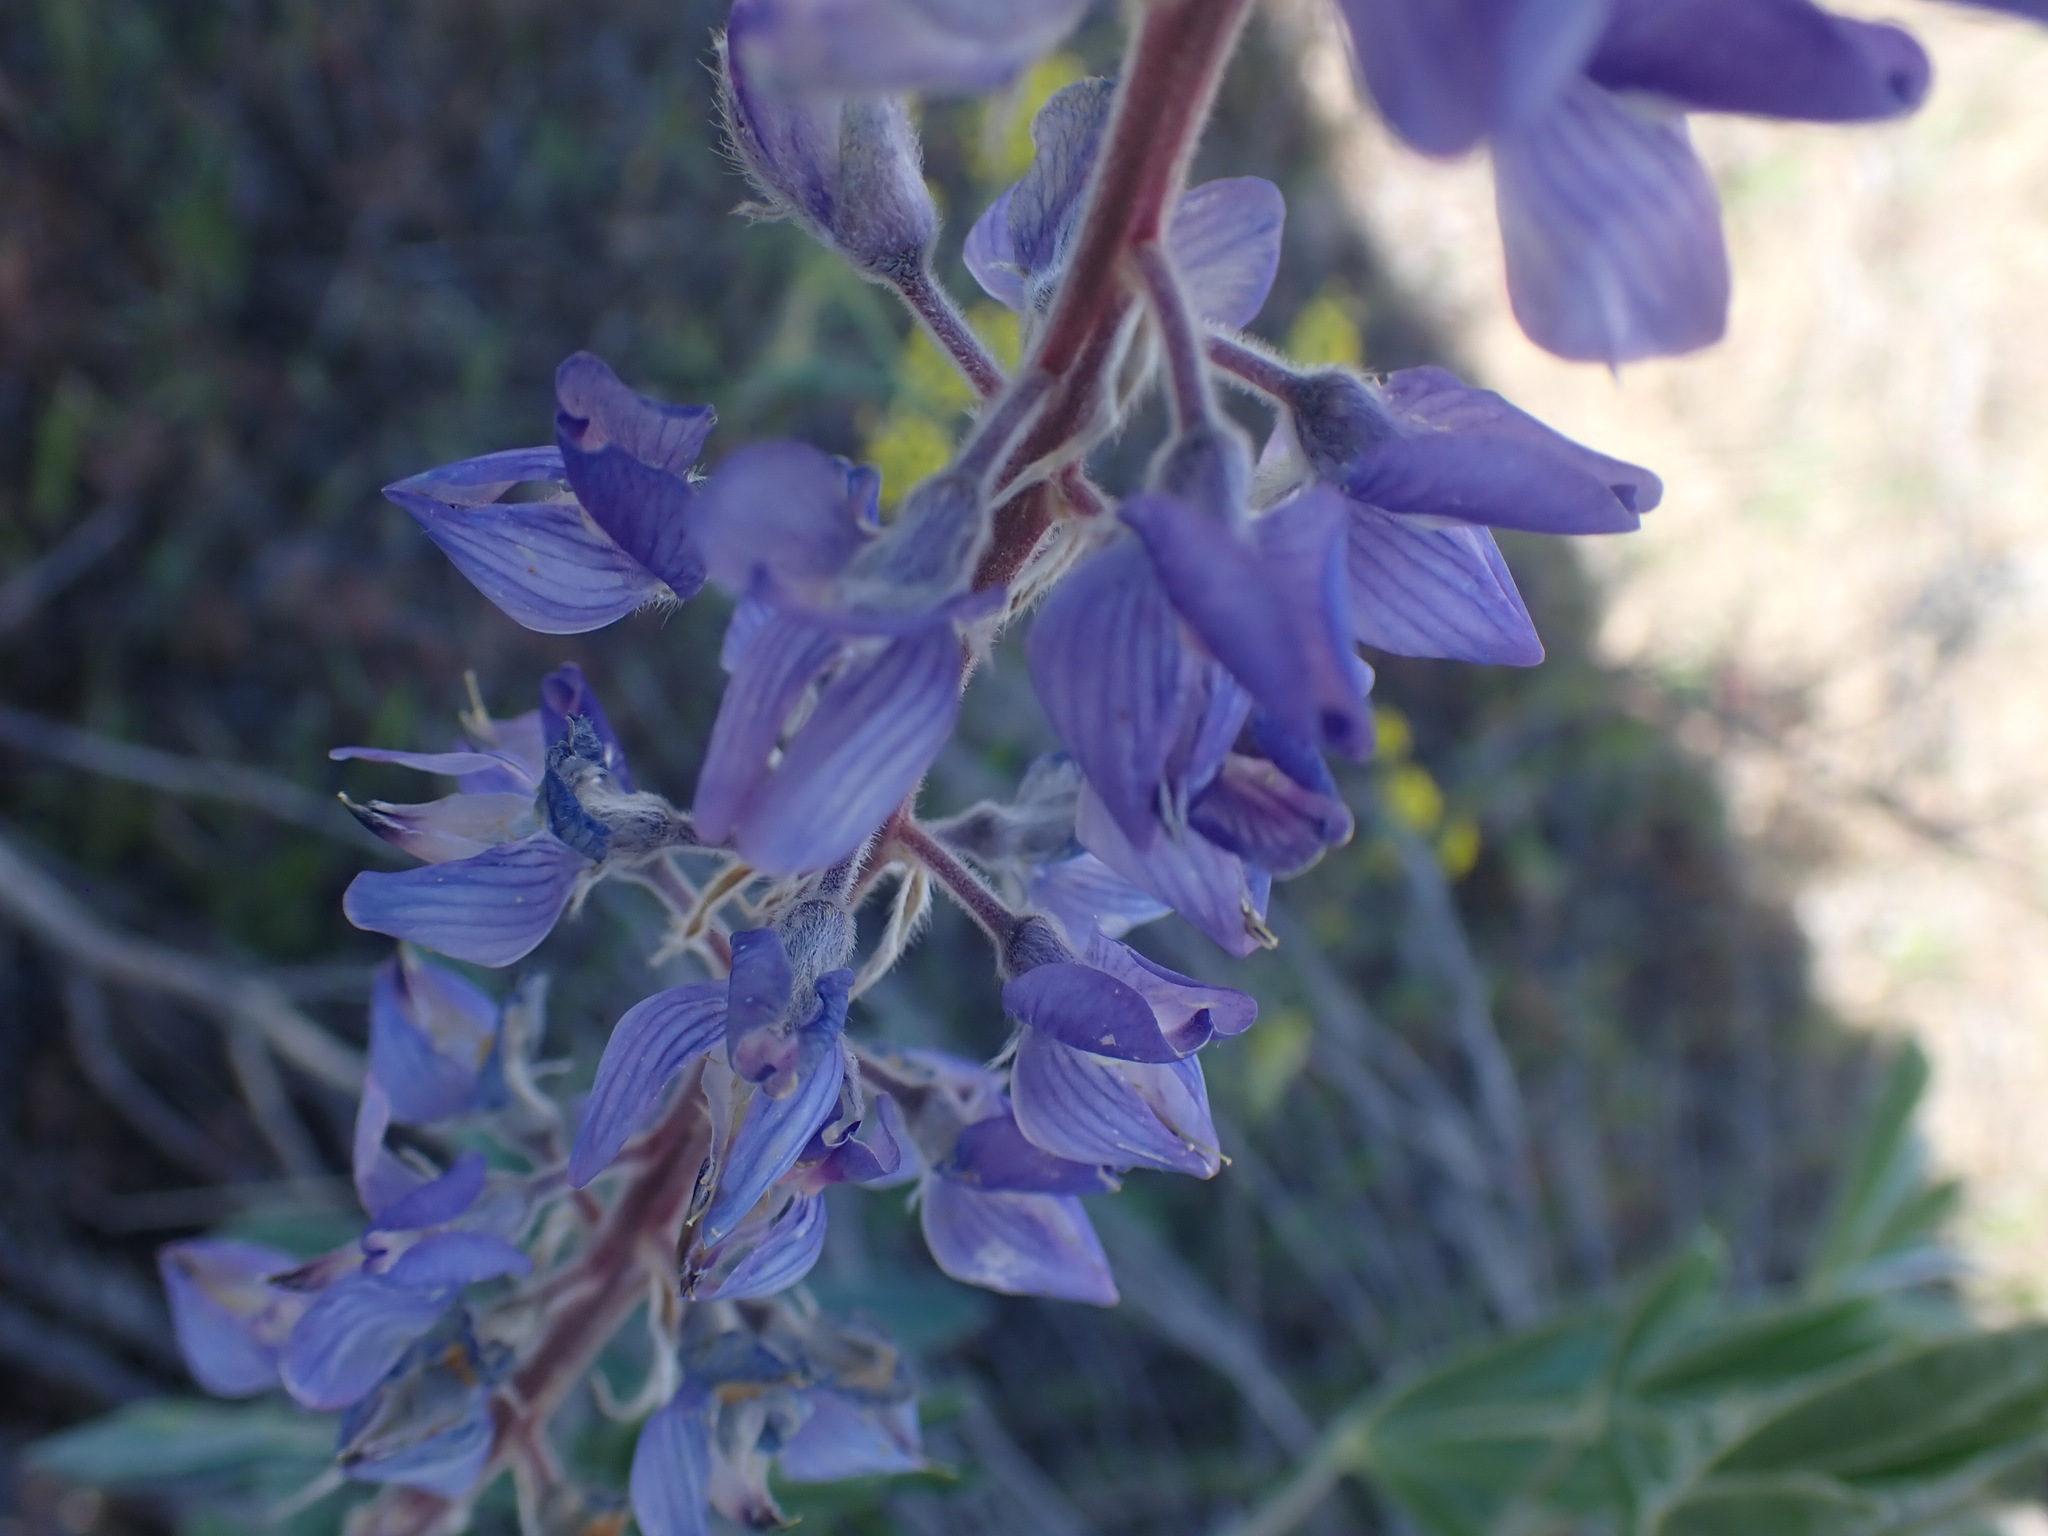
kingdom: Plantae
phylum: Tracheophyta
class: Magnoliopsida
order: Fabales
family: Fabaceae
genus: Lupinus
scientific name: Lupinus sericeus
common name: Silky lupine
